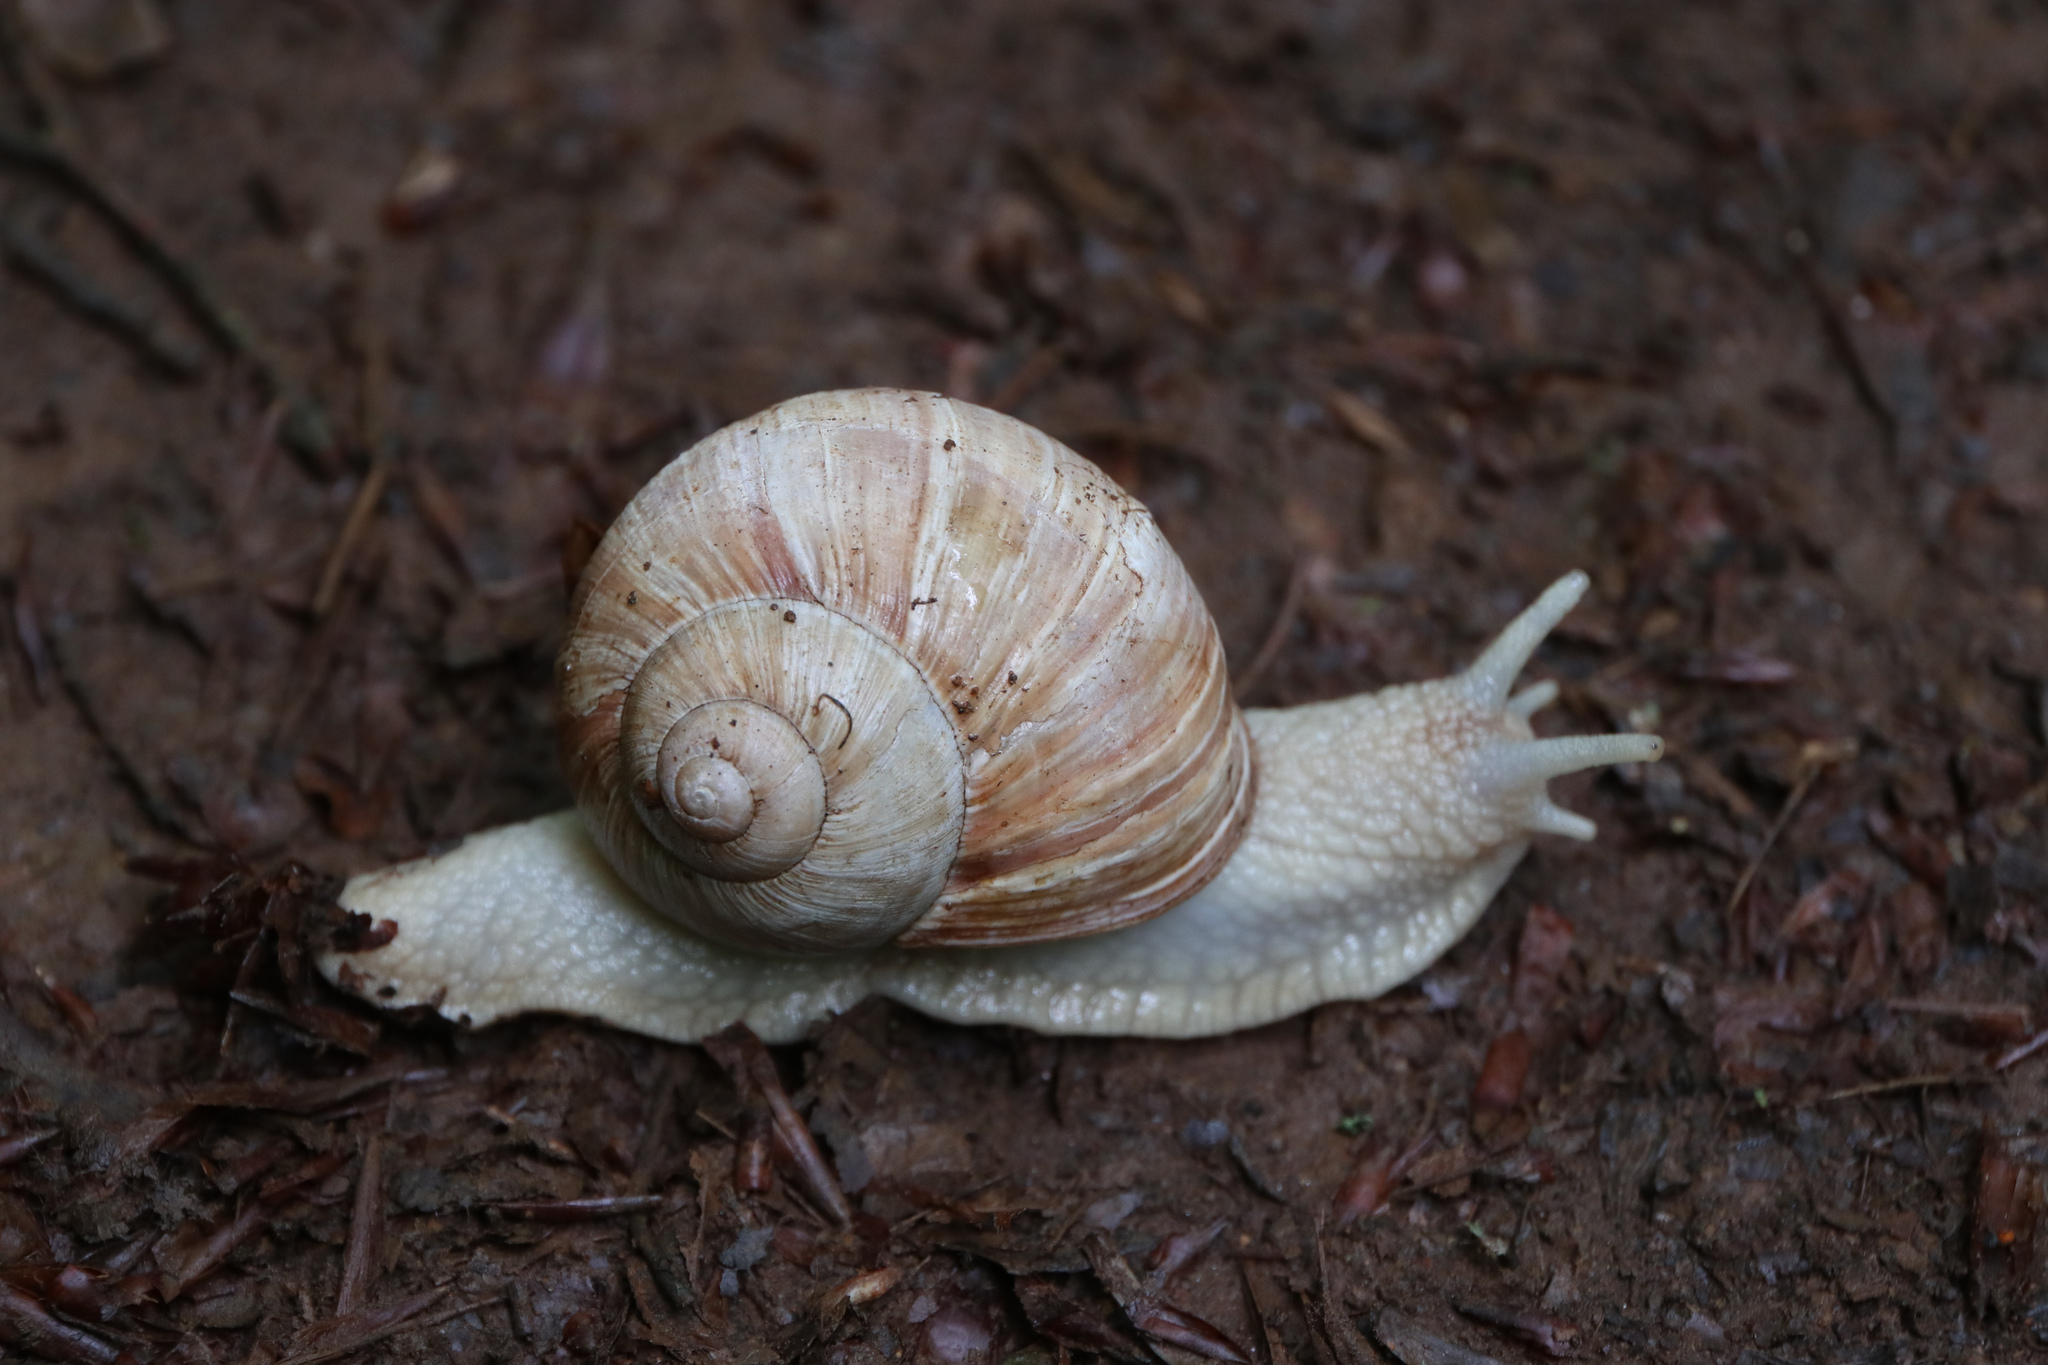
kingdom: Animalia
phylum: Mollusca
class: Gastropoda
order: Stylommatophora
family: Helicidae
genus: Helix
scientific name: Helix pomatia
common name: Roman snail
